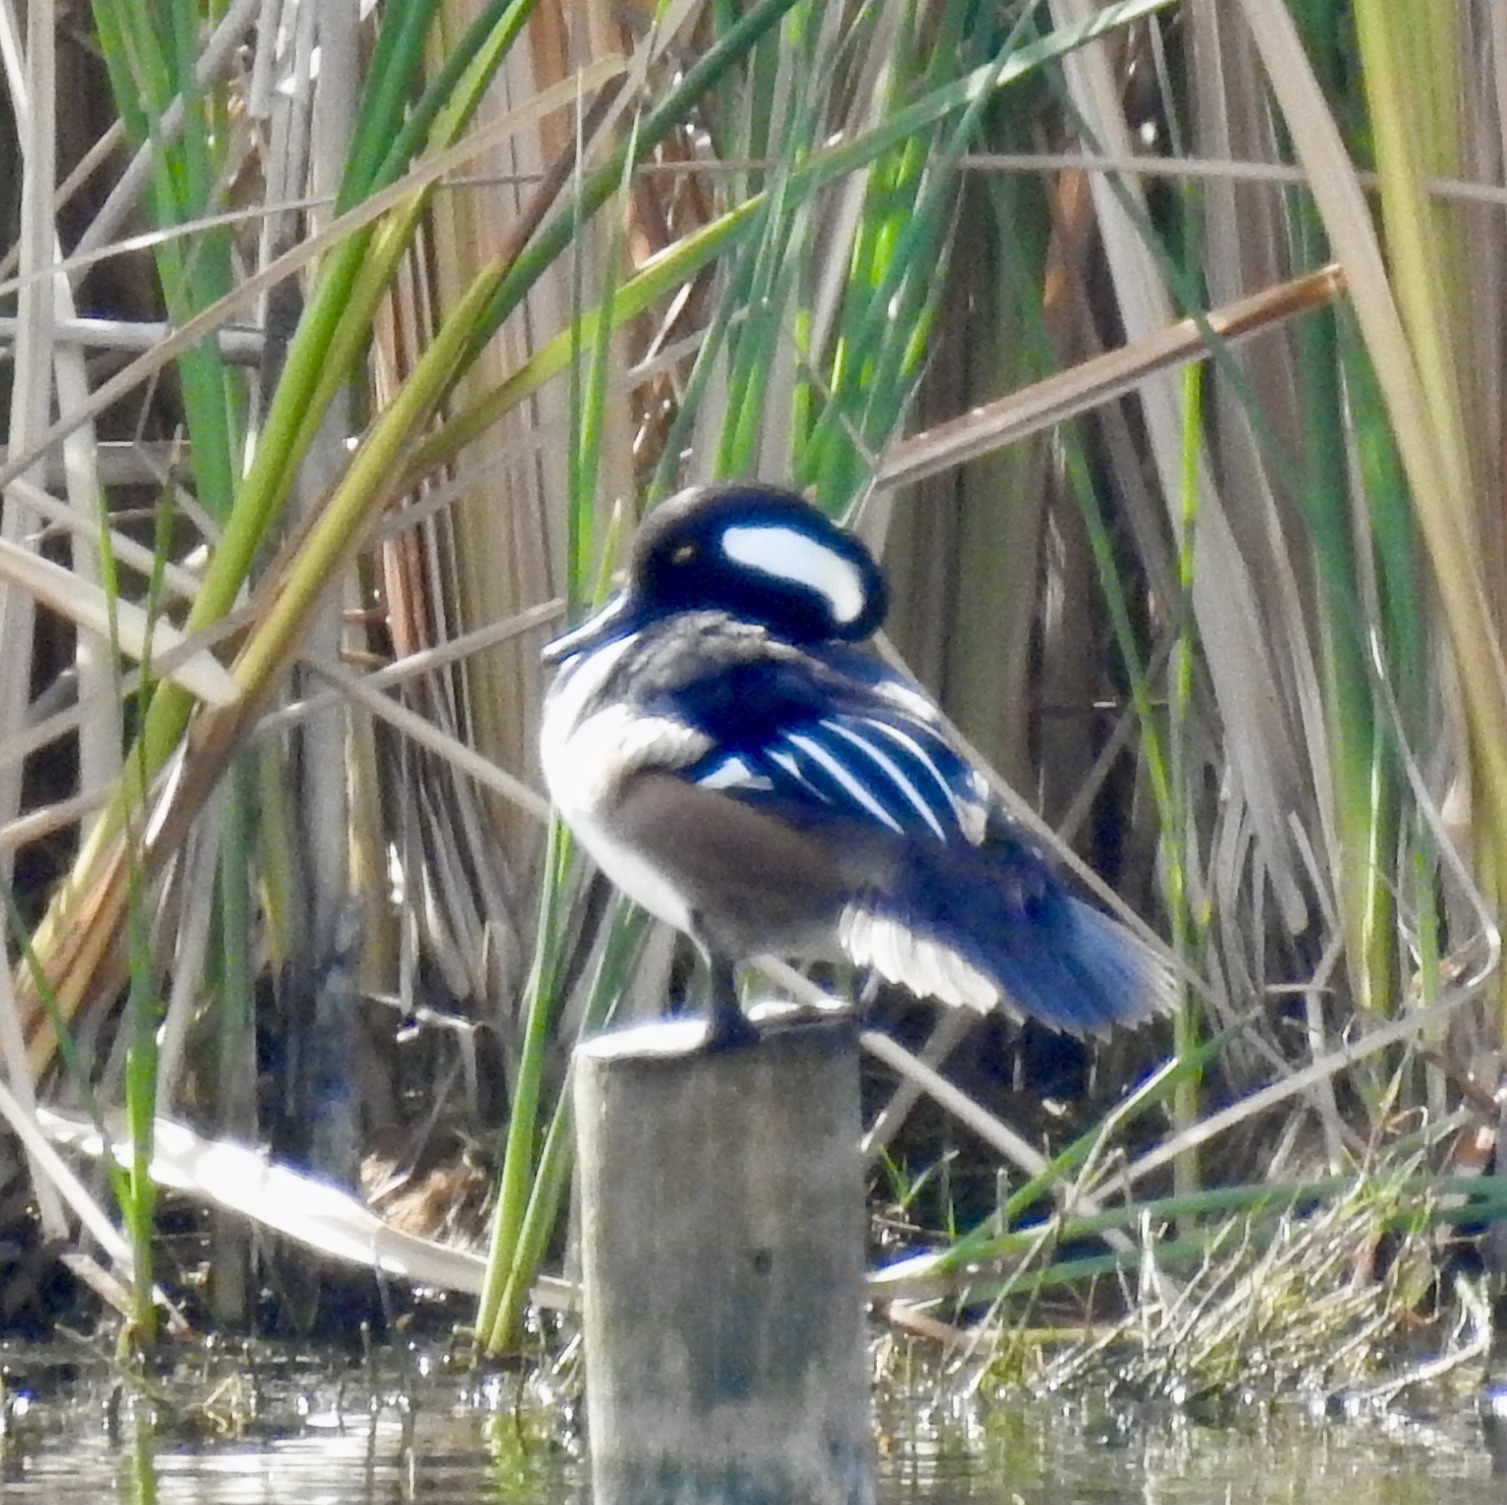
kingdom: Animalia
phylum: Chordata
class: Aves
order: Anseriformes
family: Anatidae
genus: Lophodytes
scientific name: Lophodytes cucullatus
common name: Hooded merganser
